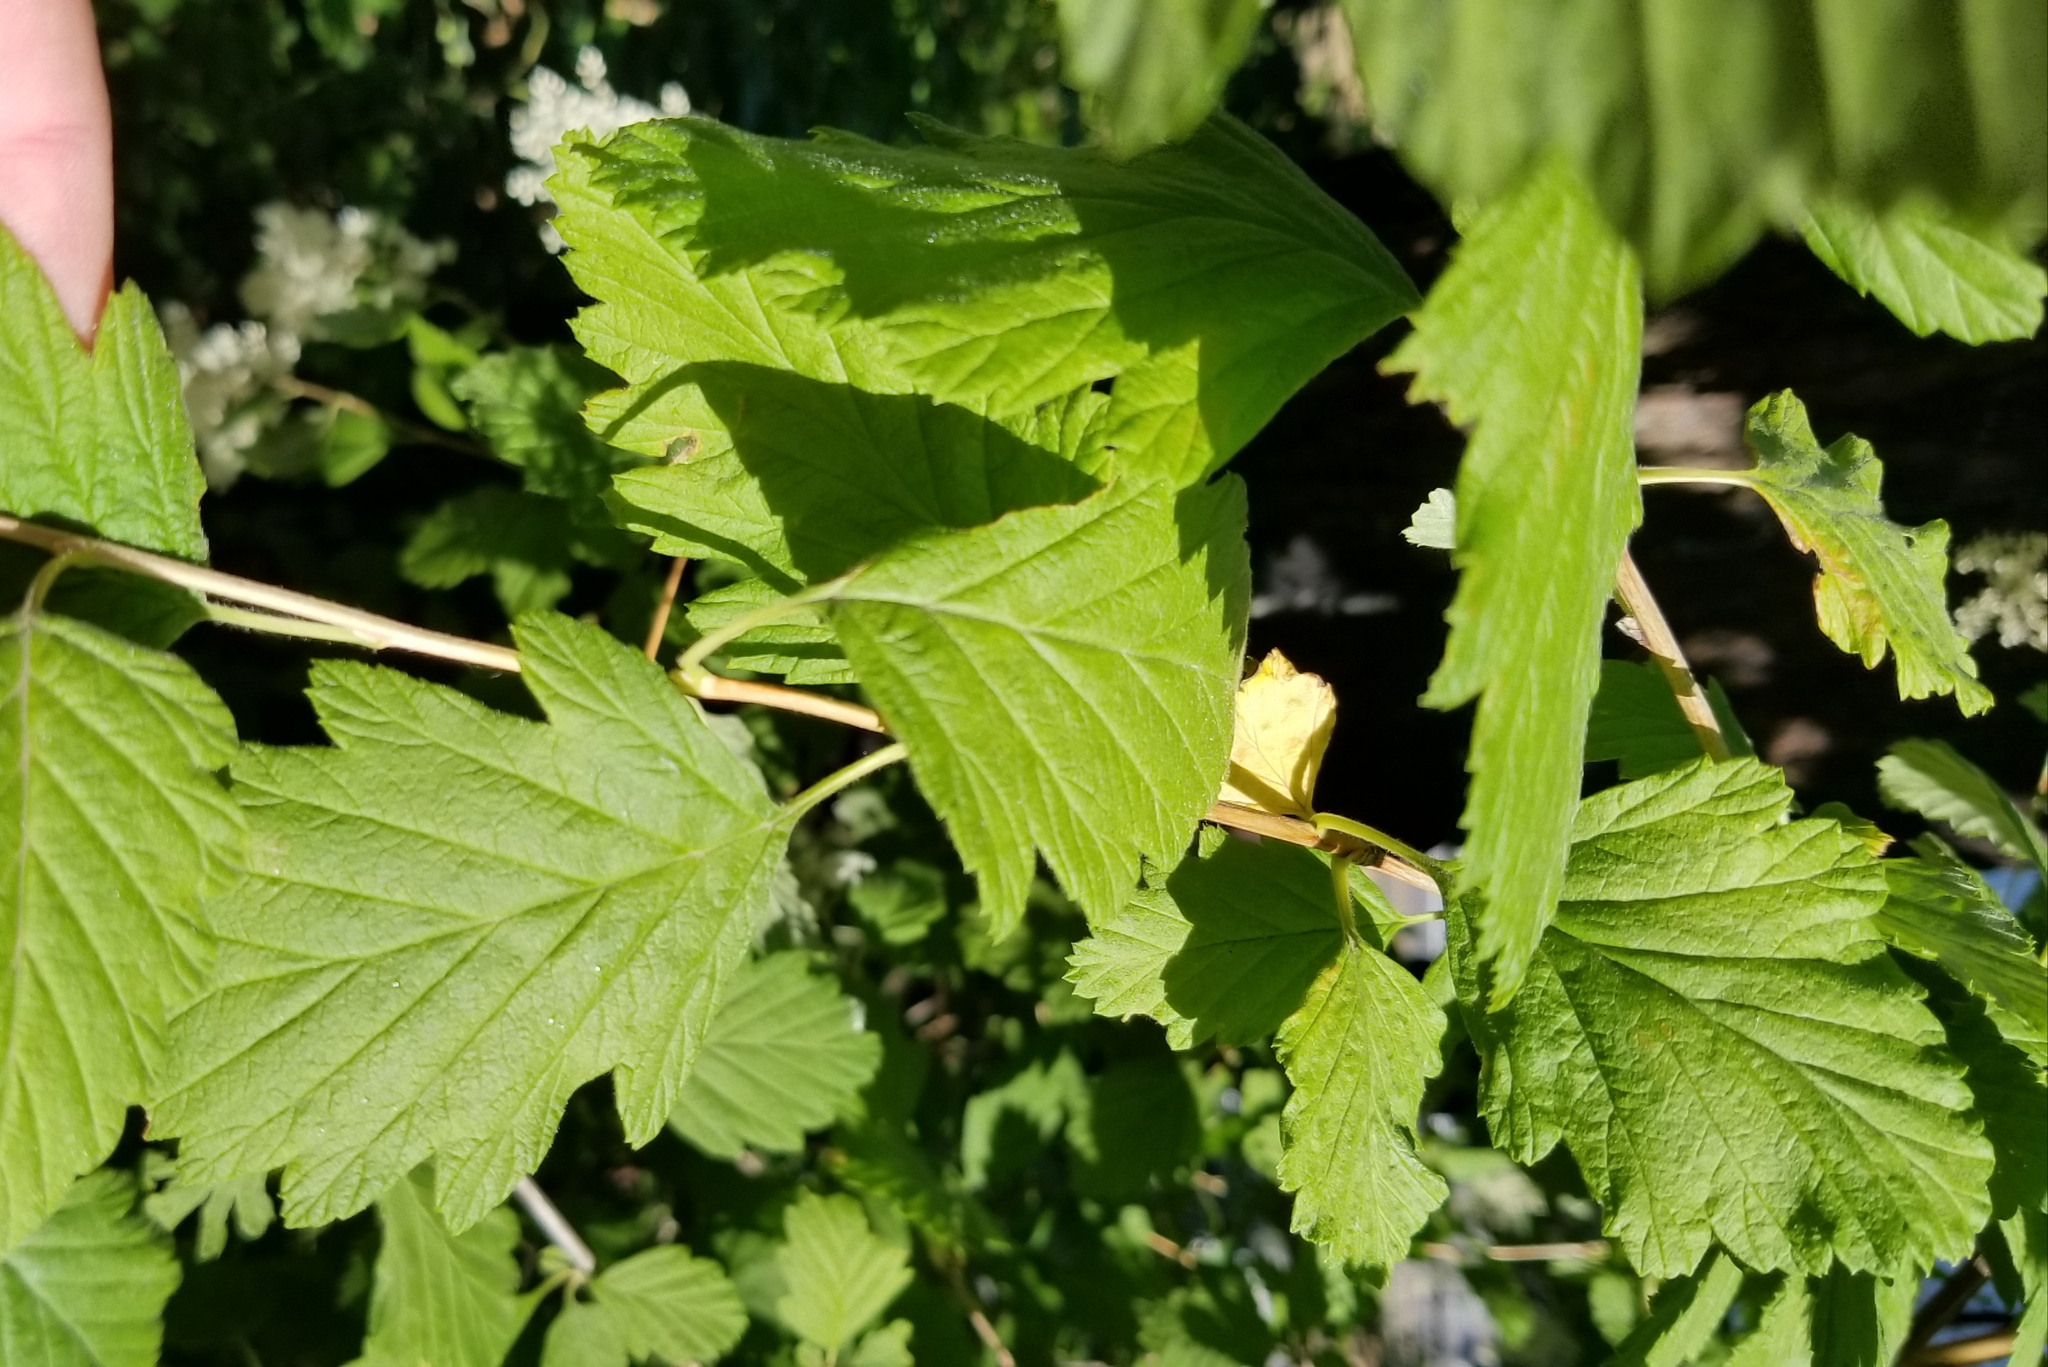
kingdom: Plantae
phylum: Tracheophyta
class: Magnoliopsida
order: Rosales
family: Rosaceae
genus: Holodiscus
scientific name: Holodiscus discolor
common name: Oceanspray
